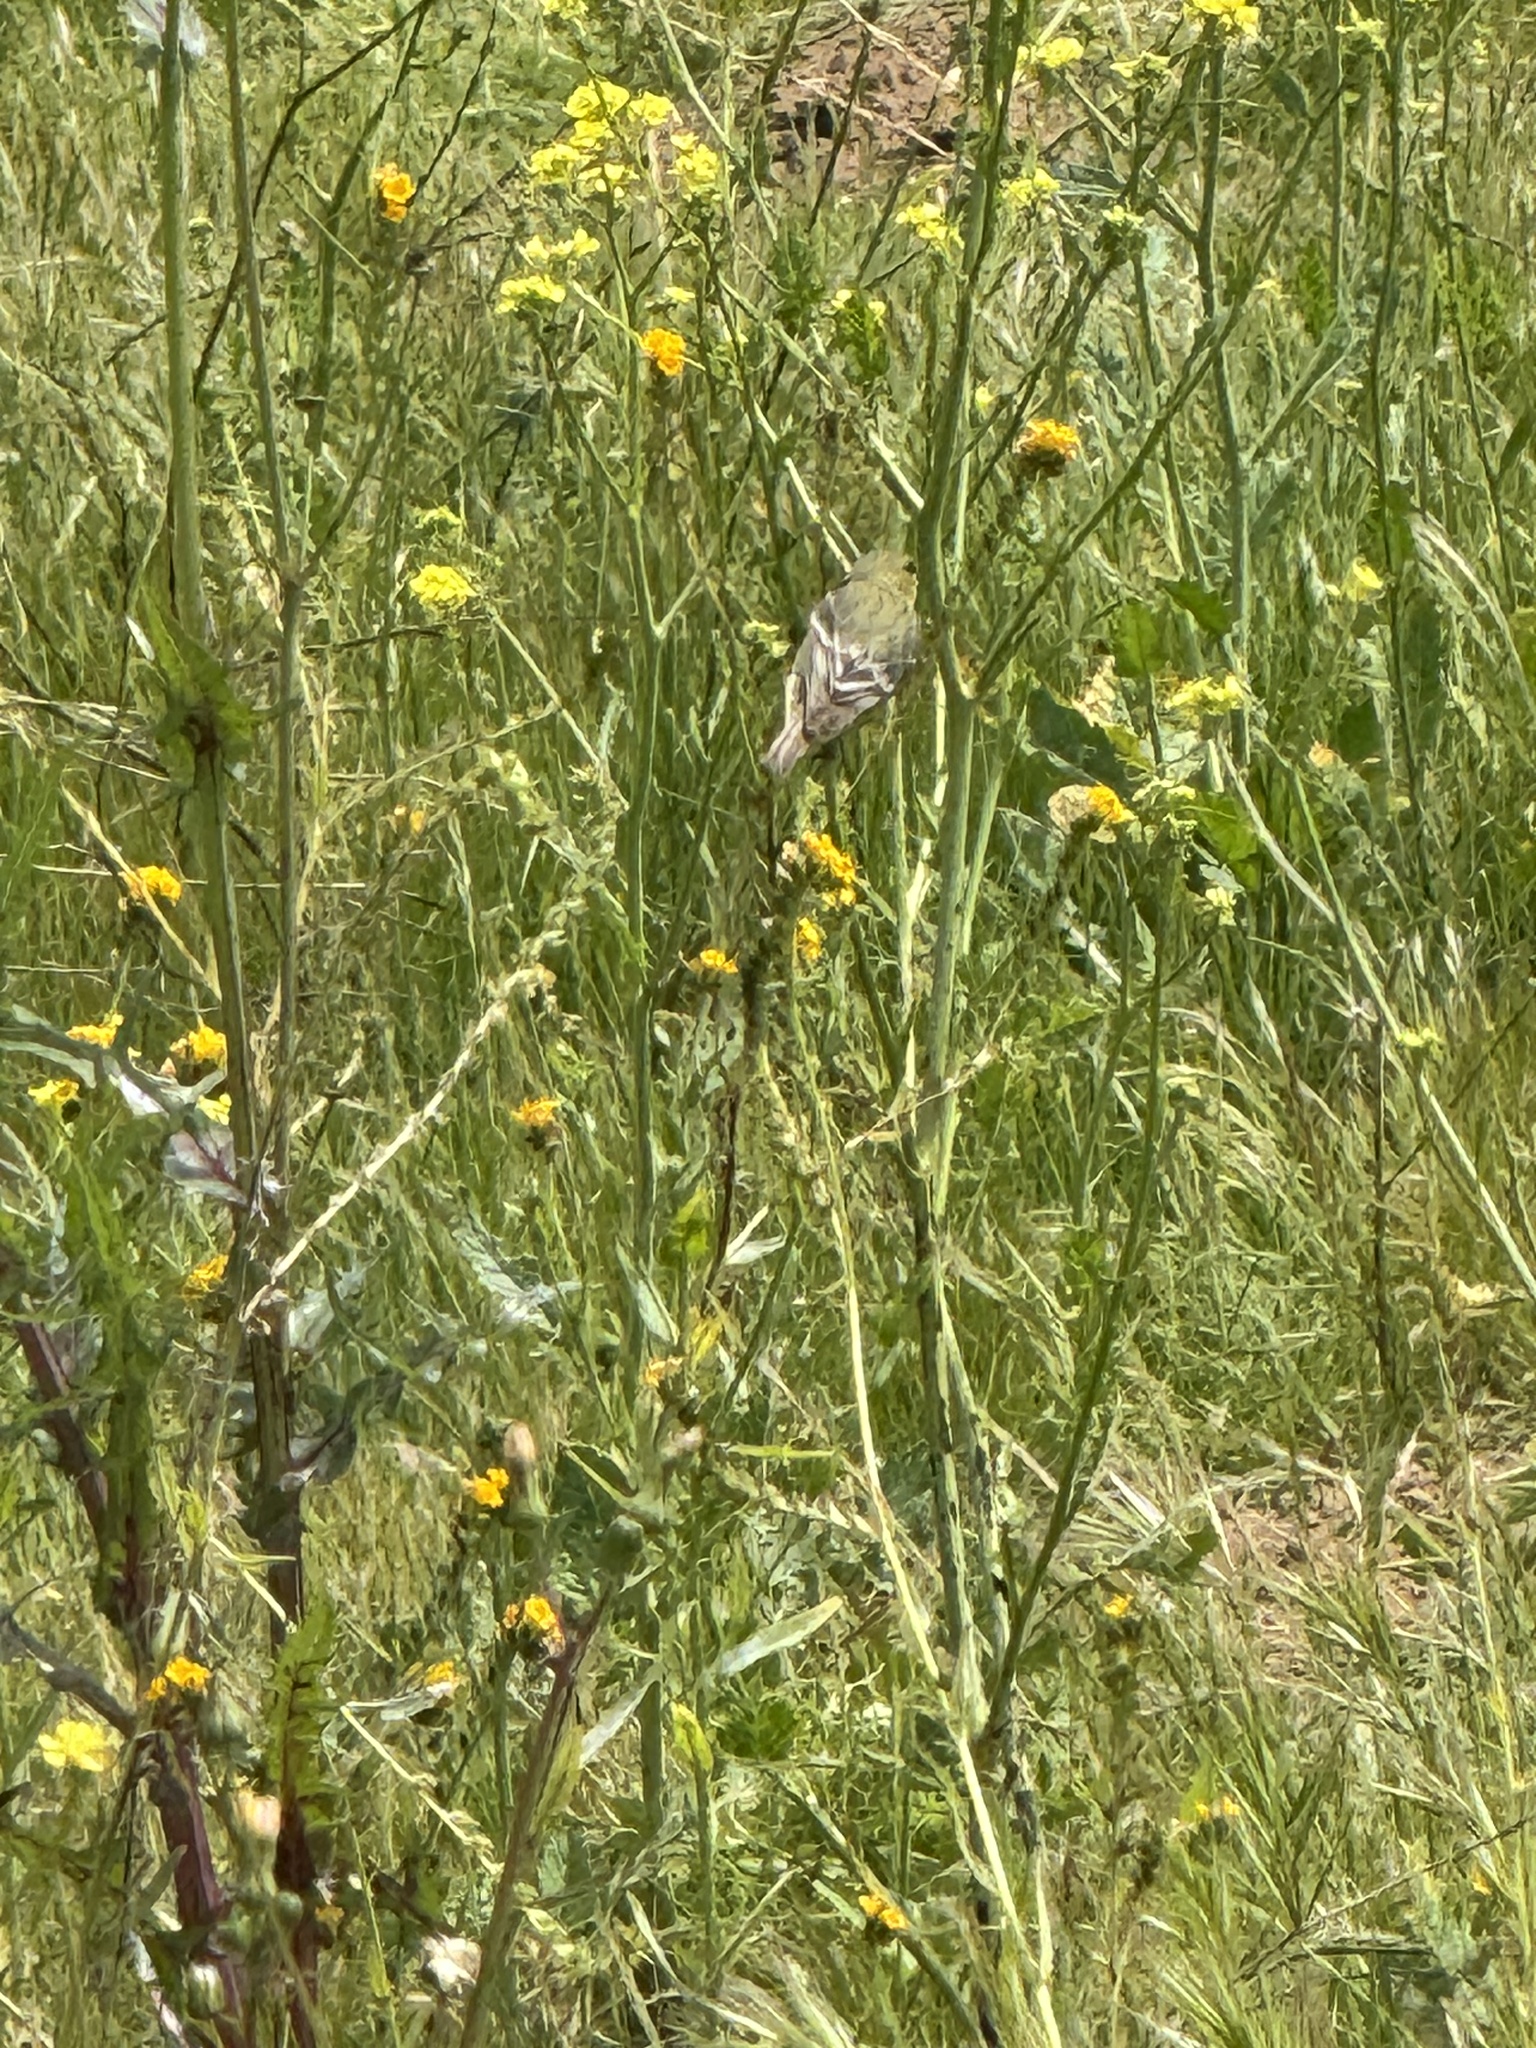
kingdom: Animalia
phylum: Chordata
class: Aves
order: Passeriformes
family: Fringillidae
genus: Spinus
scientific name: Spinus psaltria
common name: Lesser goldfinch
